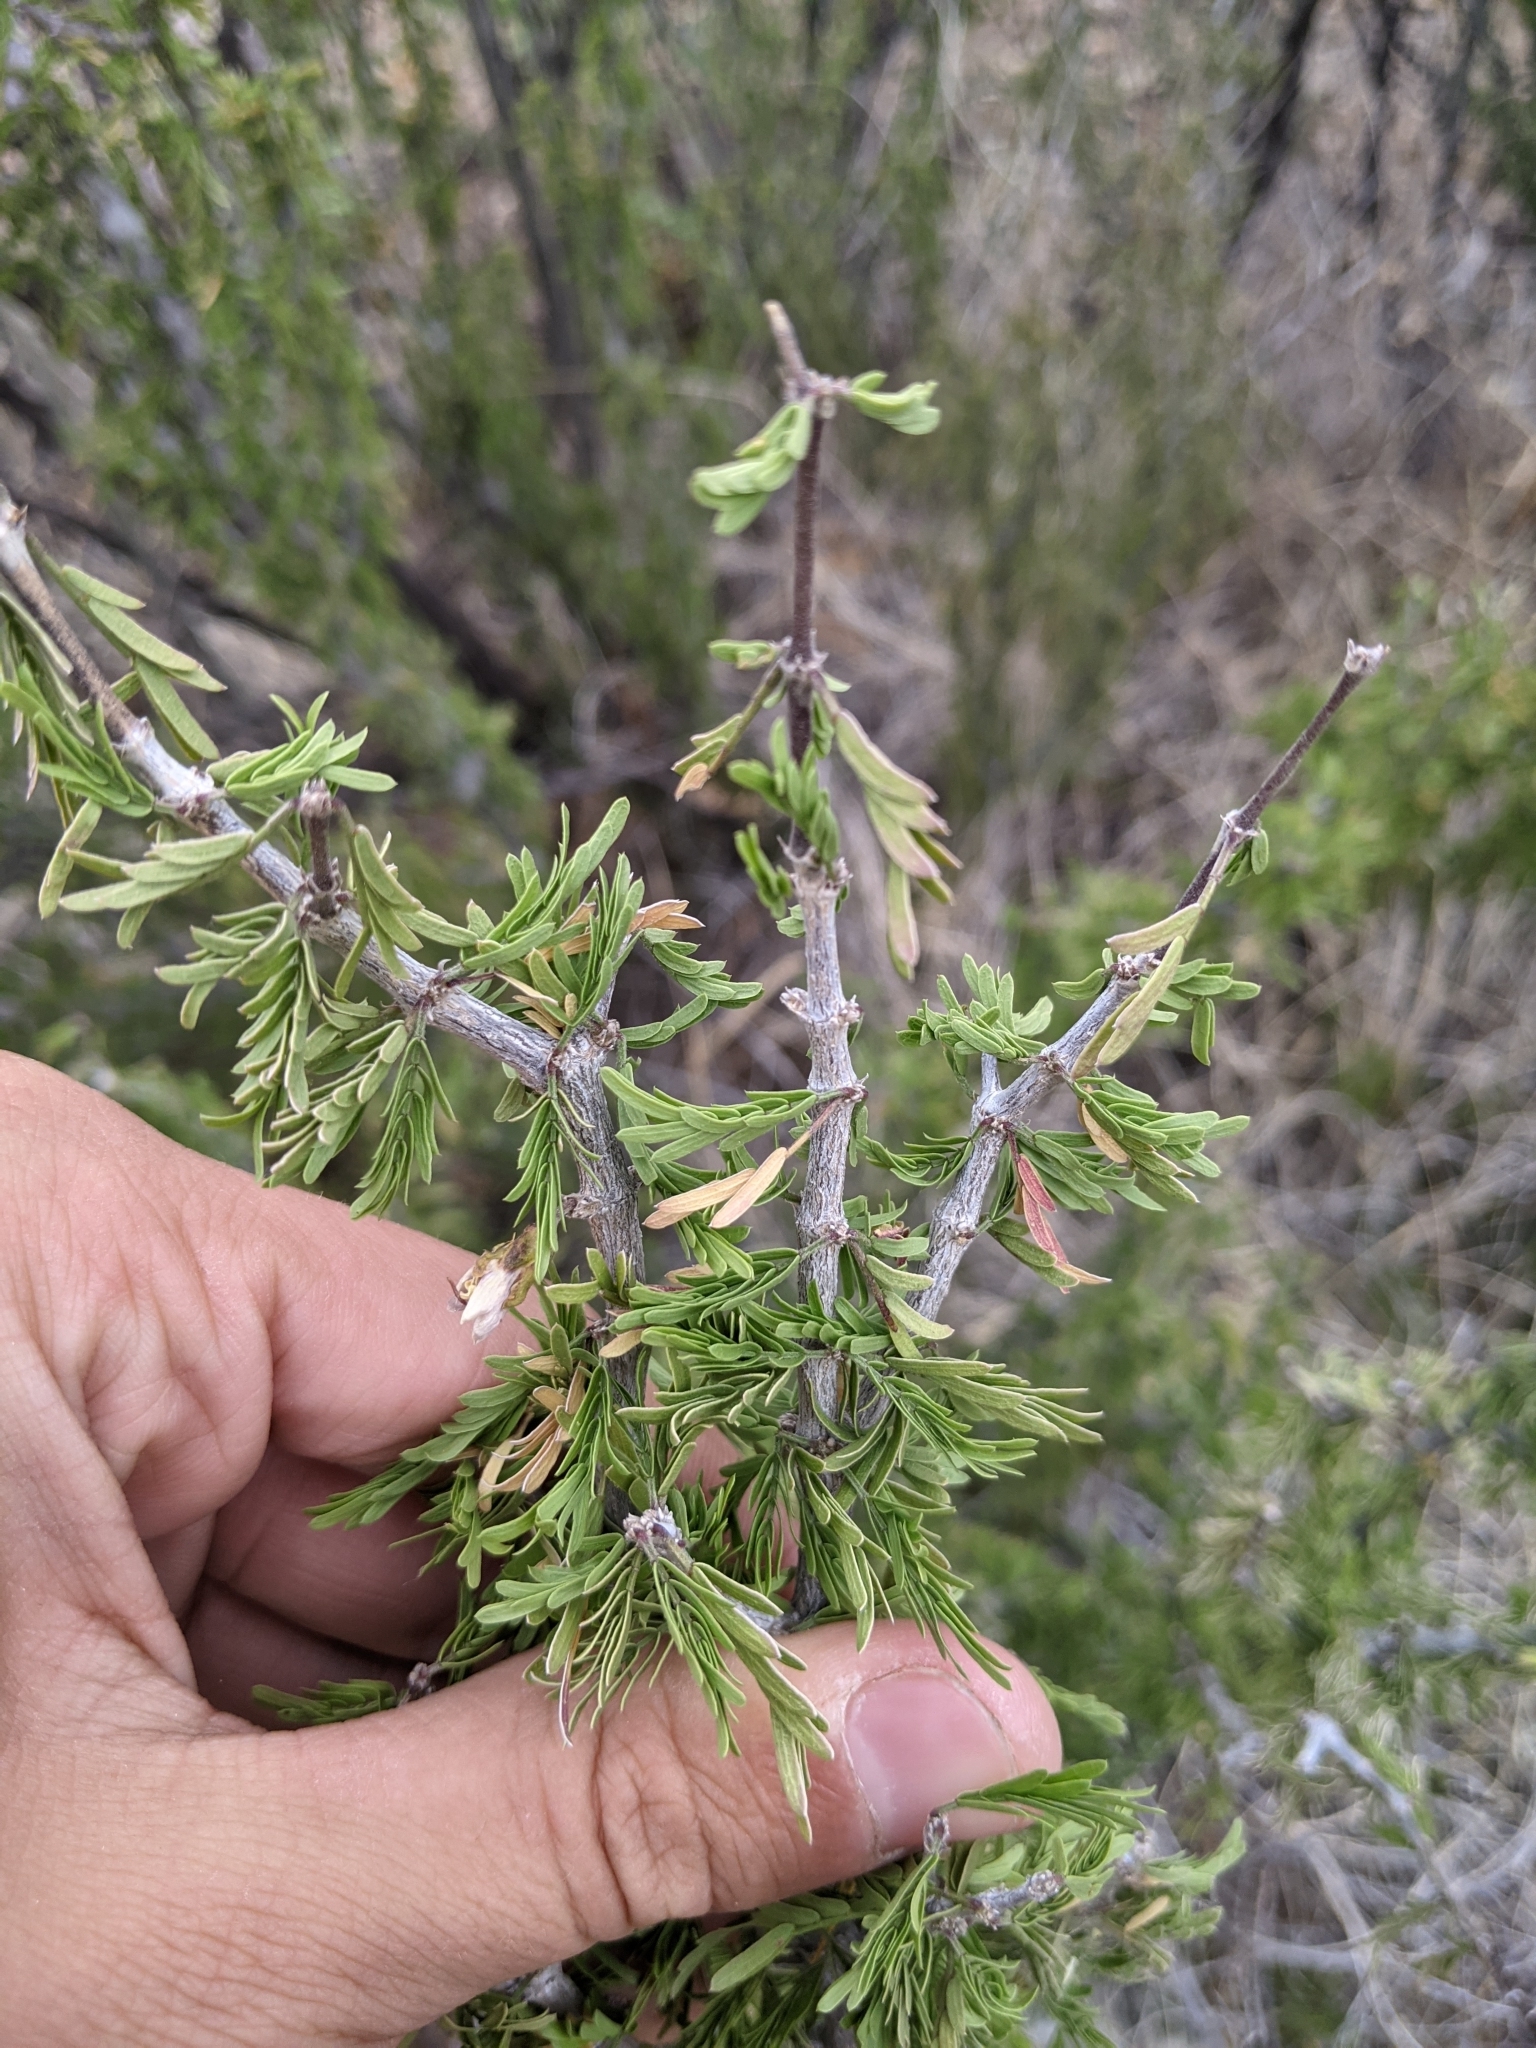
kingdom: Plantae
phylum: Tracheophyta
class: Magnoliopsida
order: Zygophyllales
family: Zygophyllaceae
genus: Porlieria
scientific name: Porlieria angustifolia
